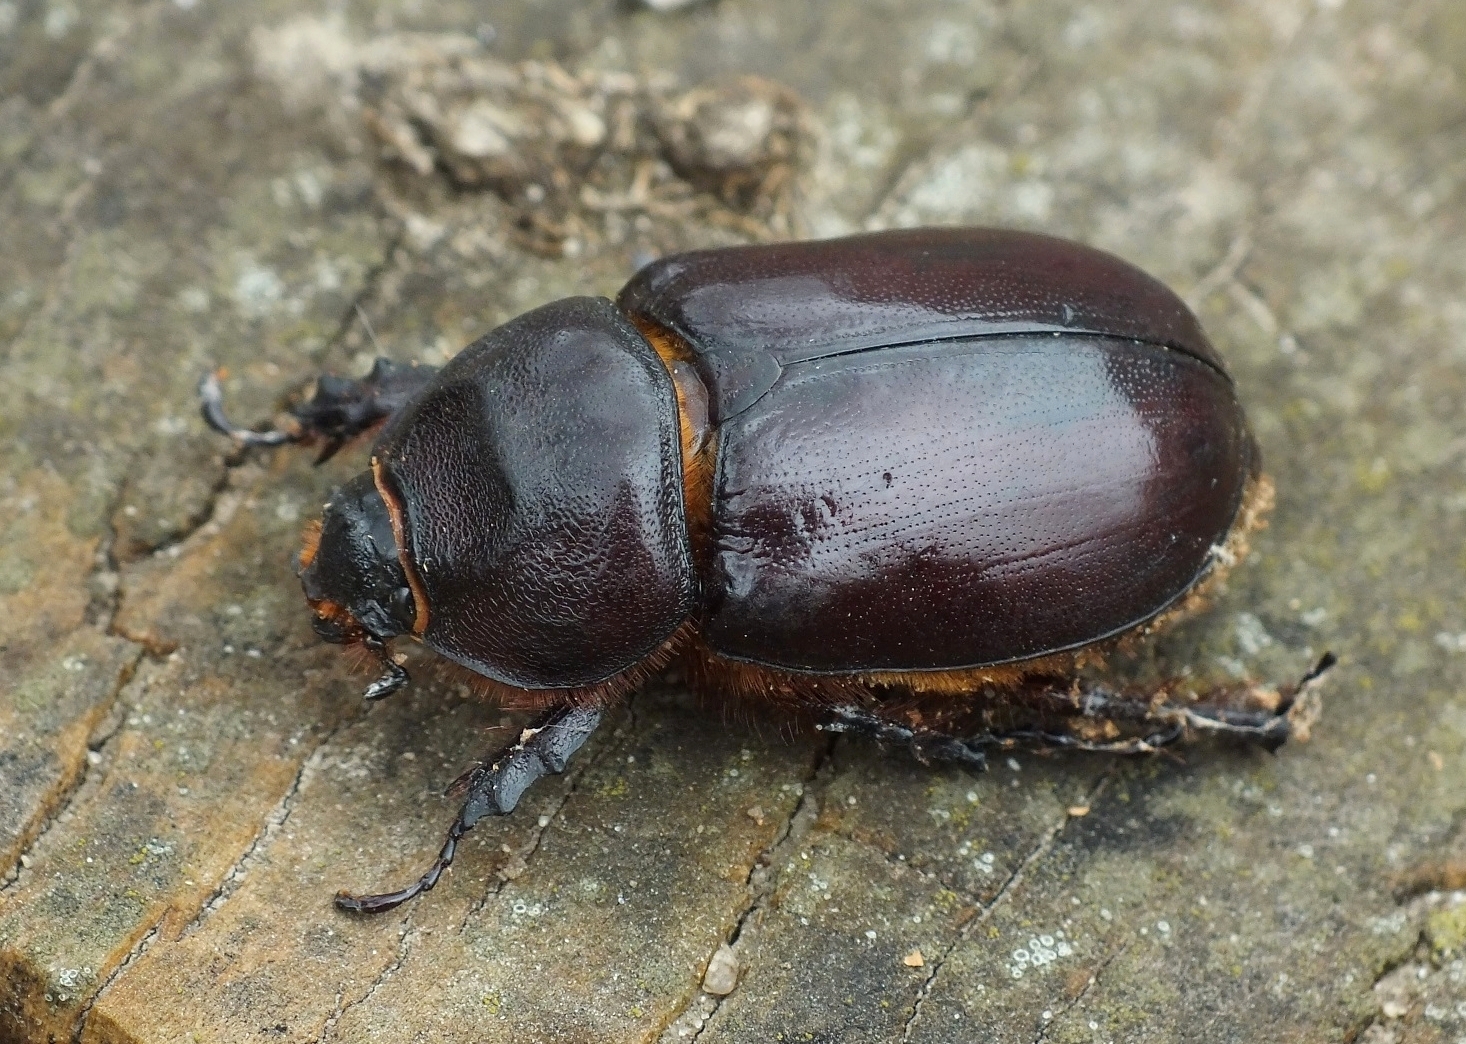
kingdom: Animalia
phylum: Arthropoda
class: Insecta
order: Coleoptera
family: Scarabaeidae
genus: Oryctes
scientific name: Oryctes nasicornis
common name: European rhinoceros beetle
